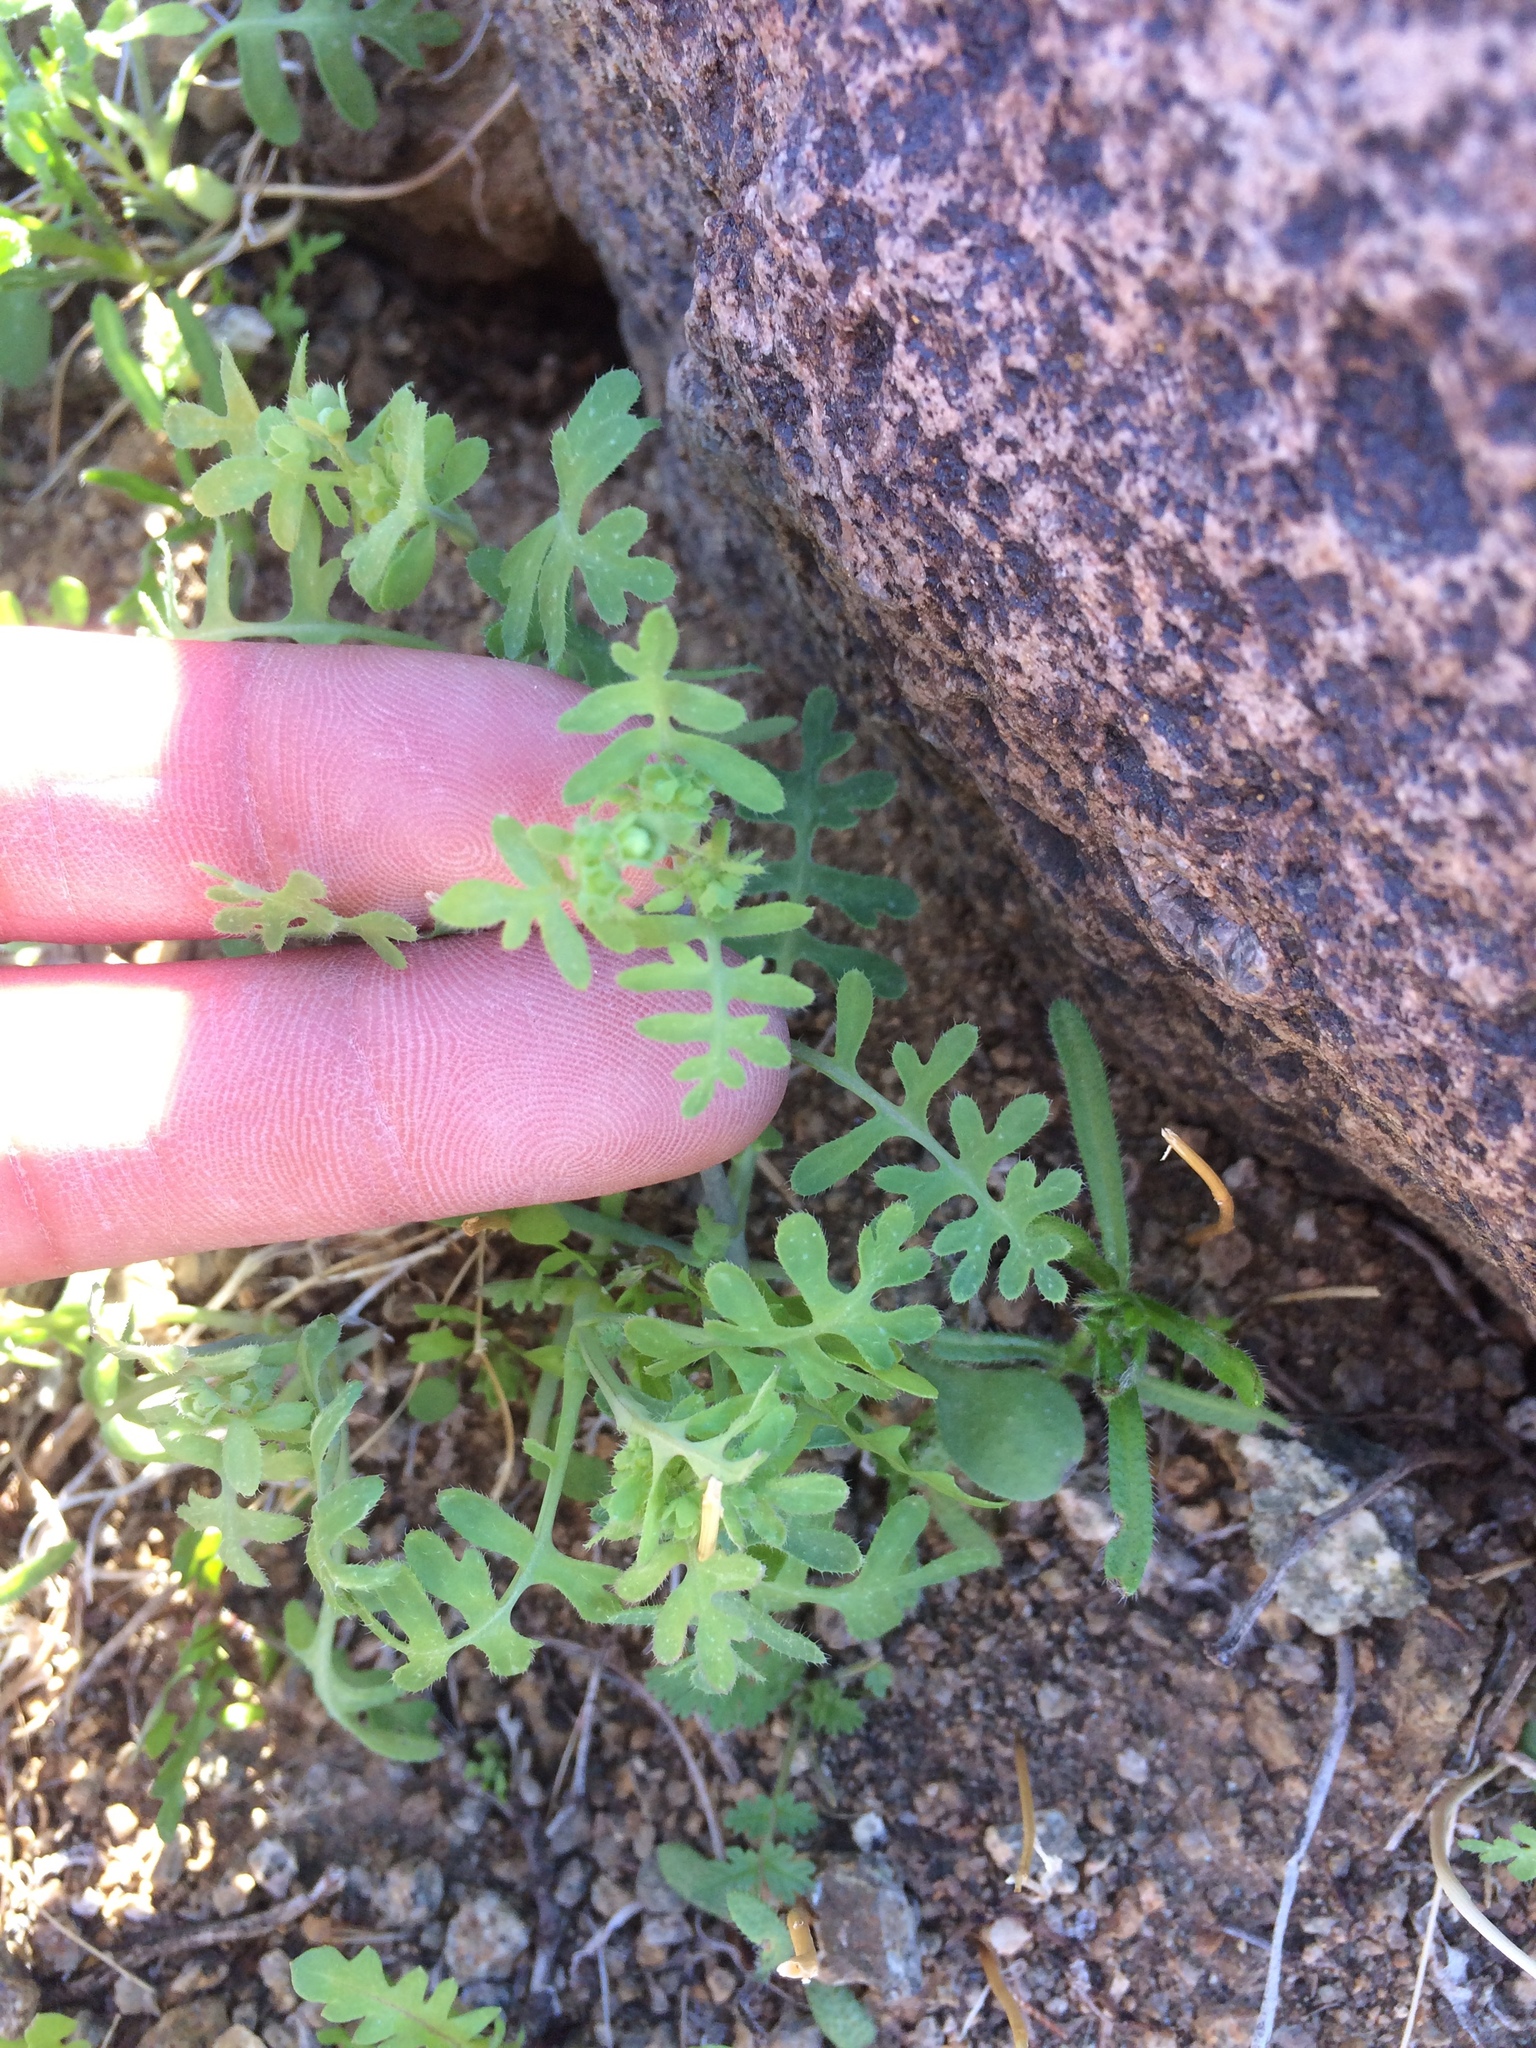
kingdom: Plantae
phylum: Tracheophyta
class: Magnoliopsida
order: Boraginales
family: Hydrophyllaceae
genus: Pholistoma
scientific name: Pholistoma membranaceum
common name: White fiesta-flower
